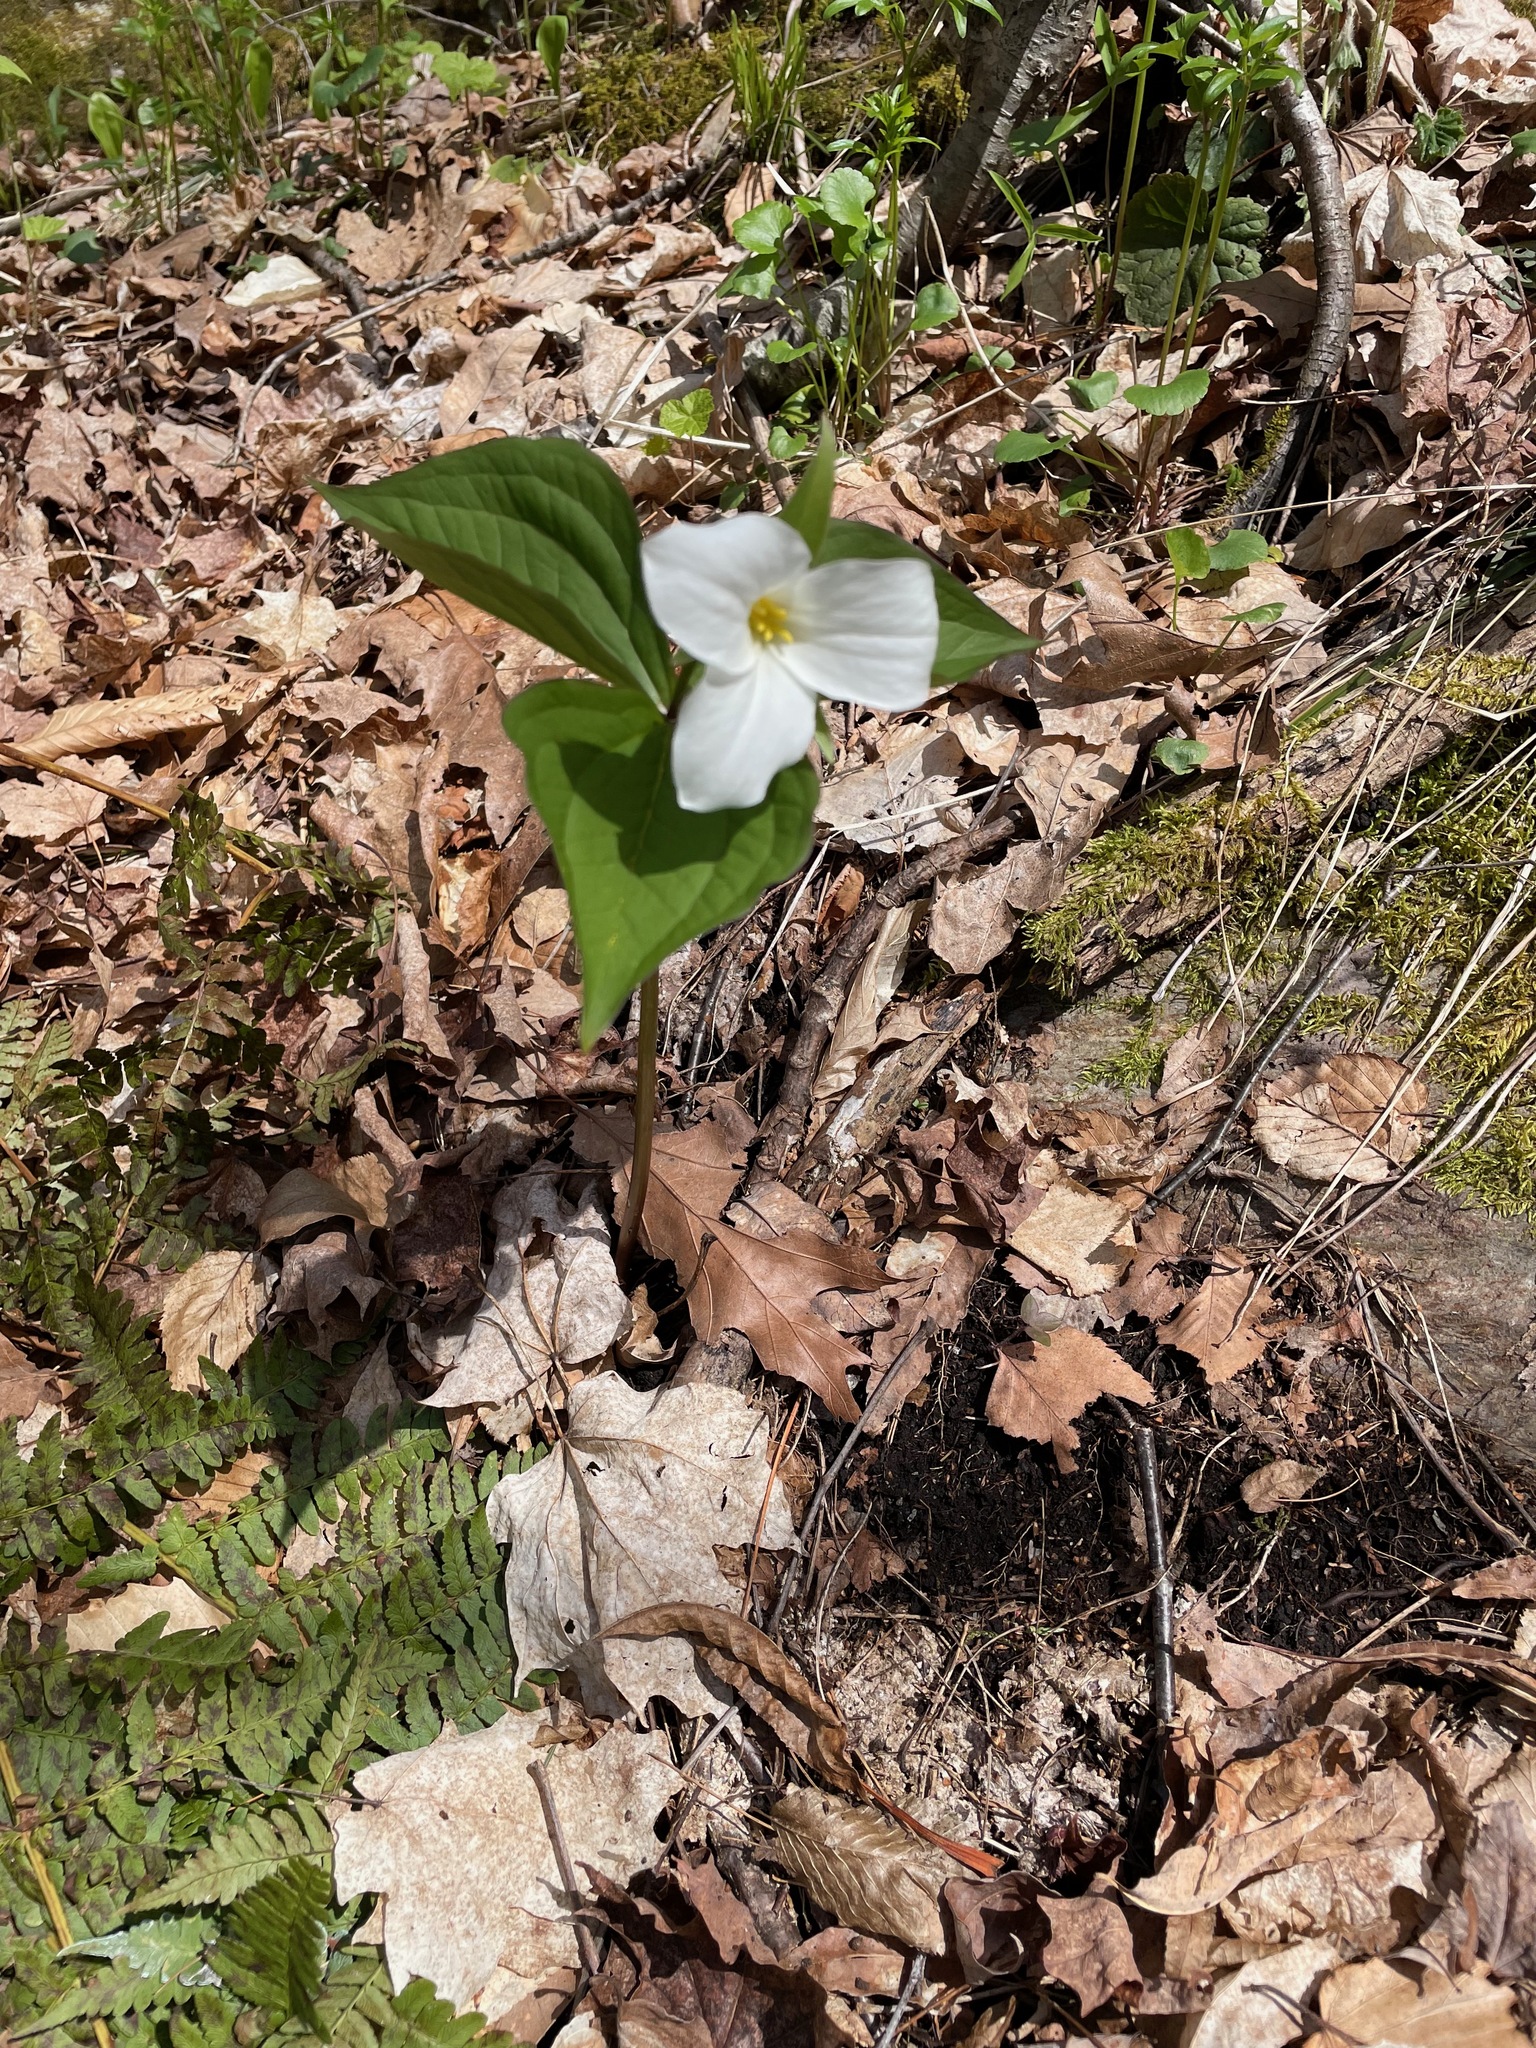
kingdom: Plantae
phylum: Tracheophyta
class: Liliopsida
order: Liliales
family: Melanthiaceae
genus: Trillium
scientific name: Trillium grandiflorum
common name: Great white trillium
